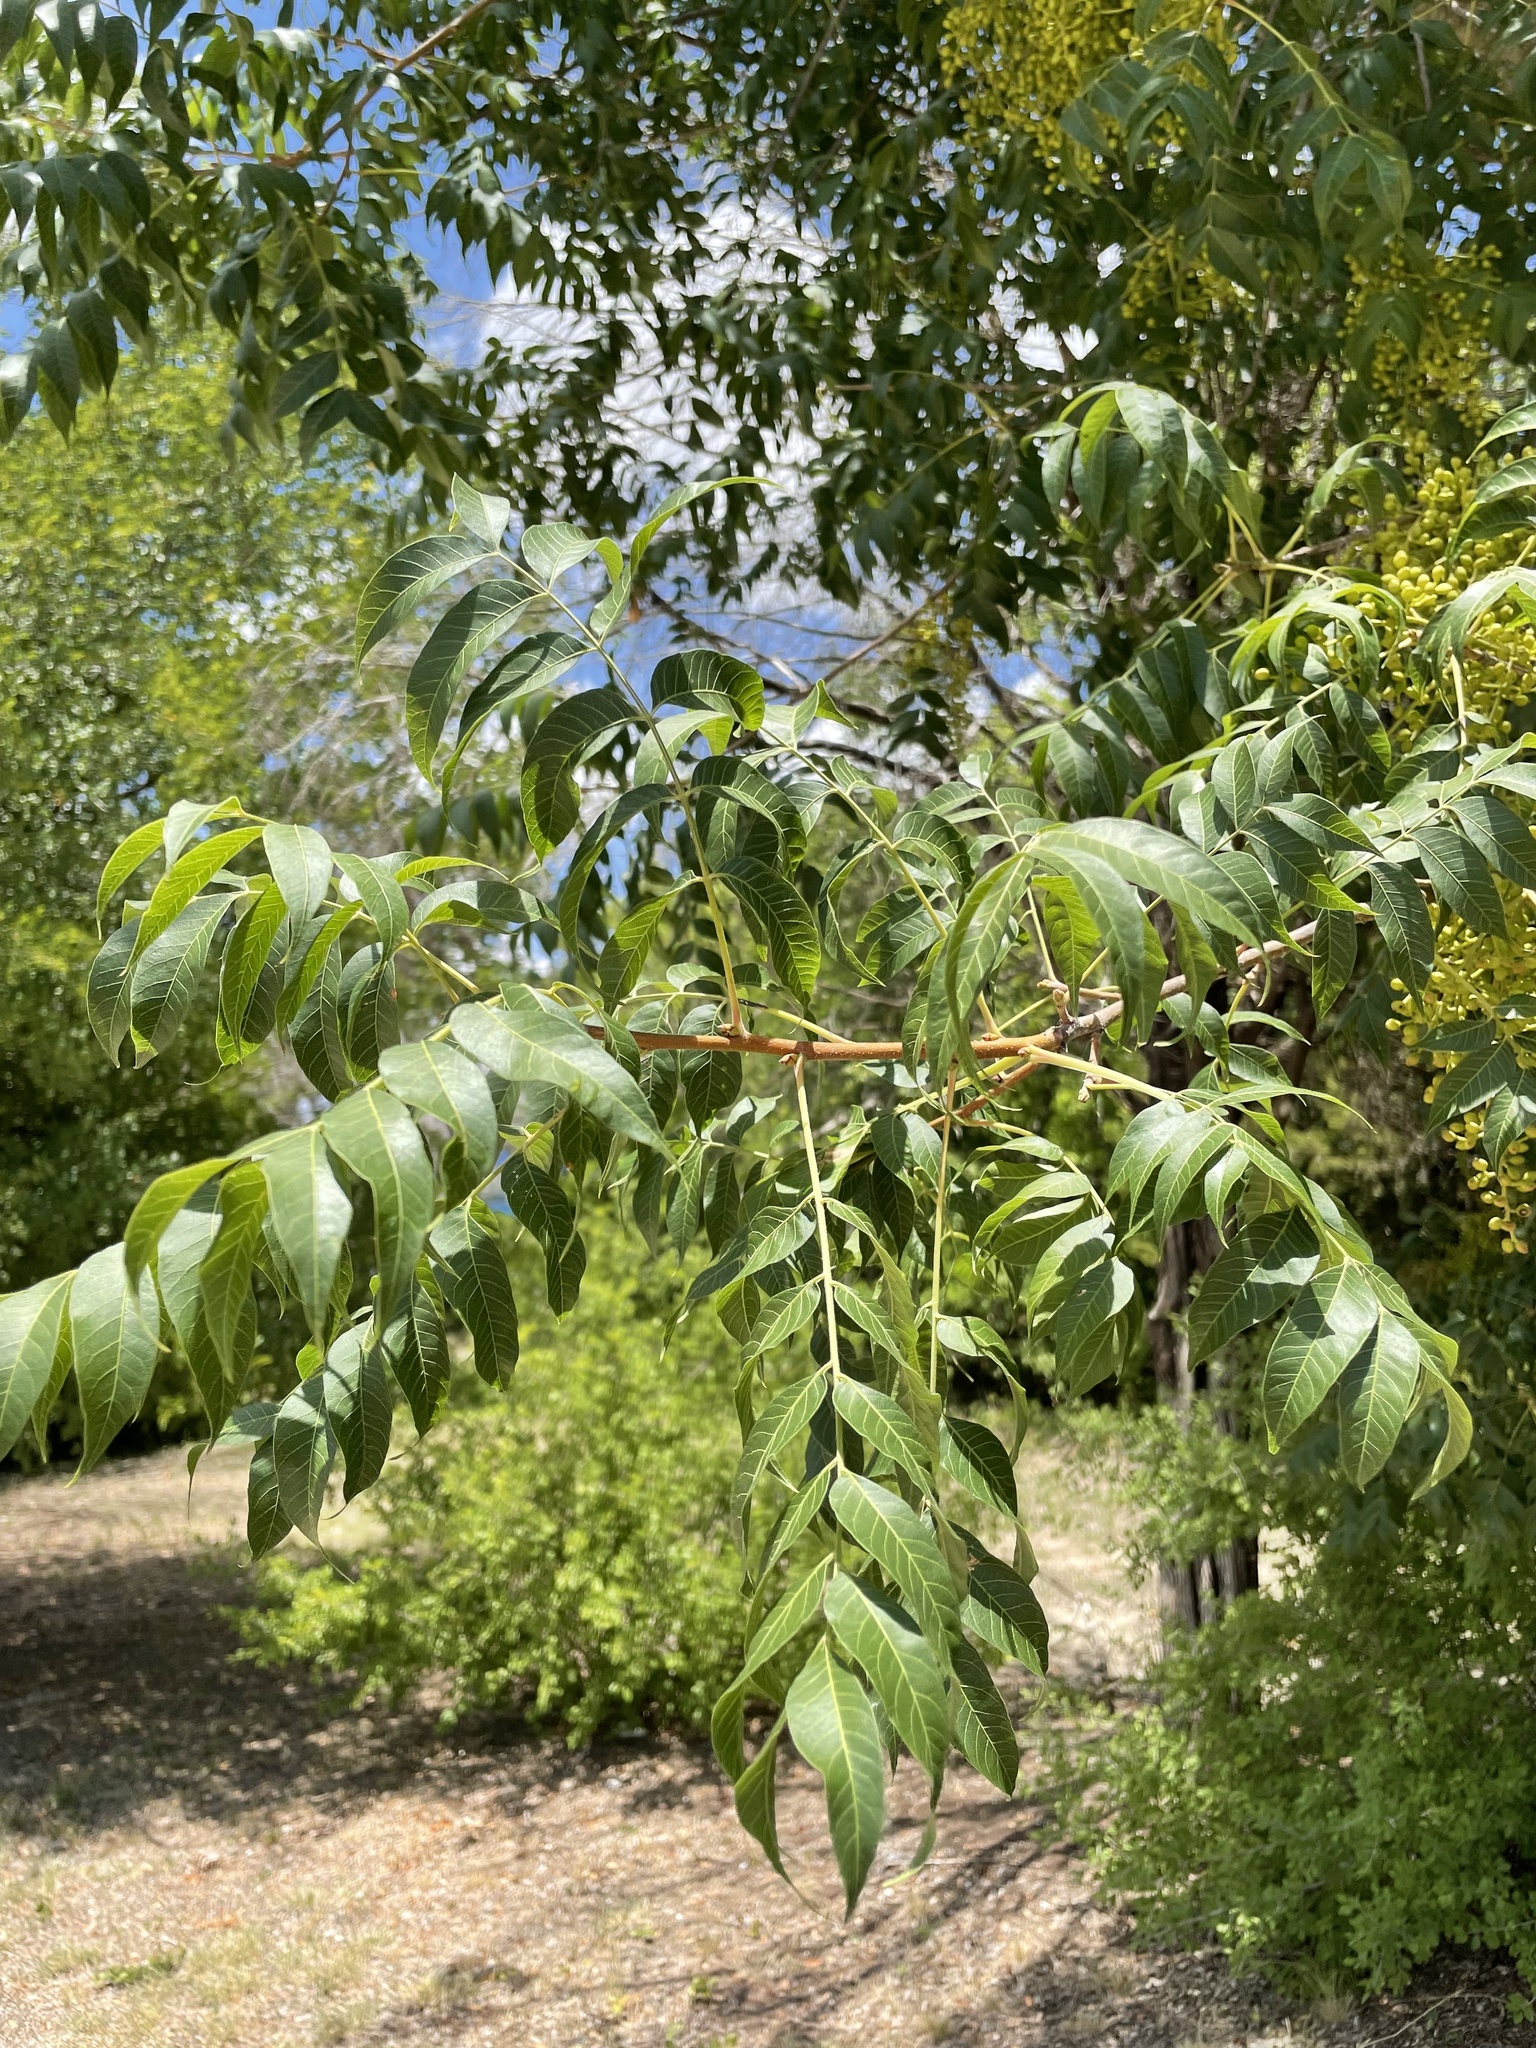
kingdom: Plantae
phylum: Tracheophyta
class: Magnoliopsida
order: Sapindales
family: Anacardiaceae
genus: Pistacia
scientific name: Pistacia chinensis
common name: Chinese pistache
